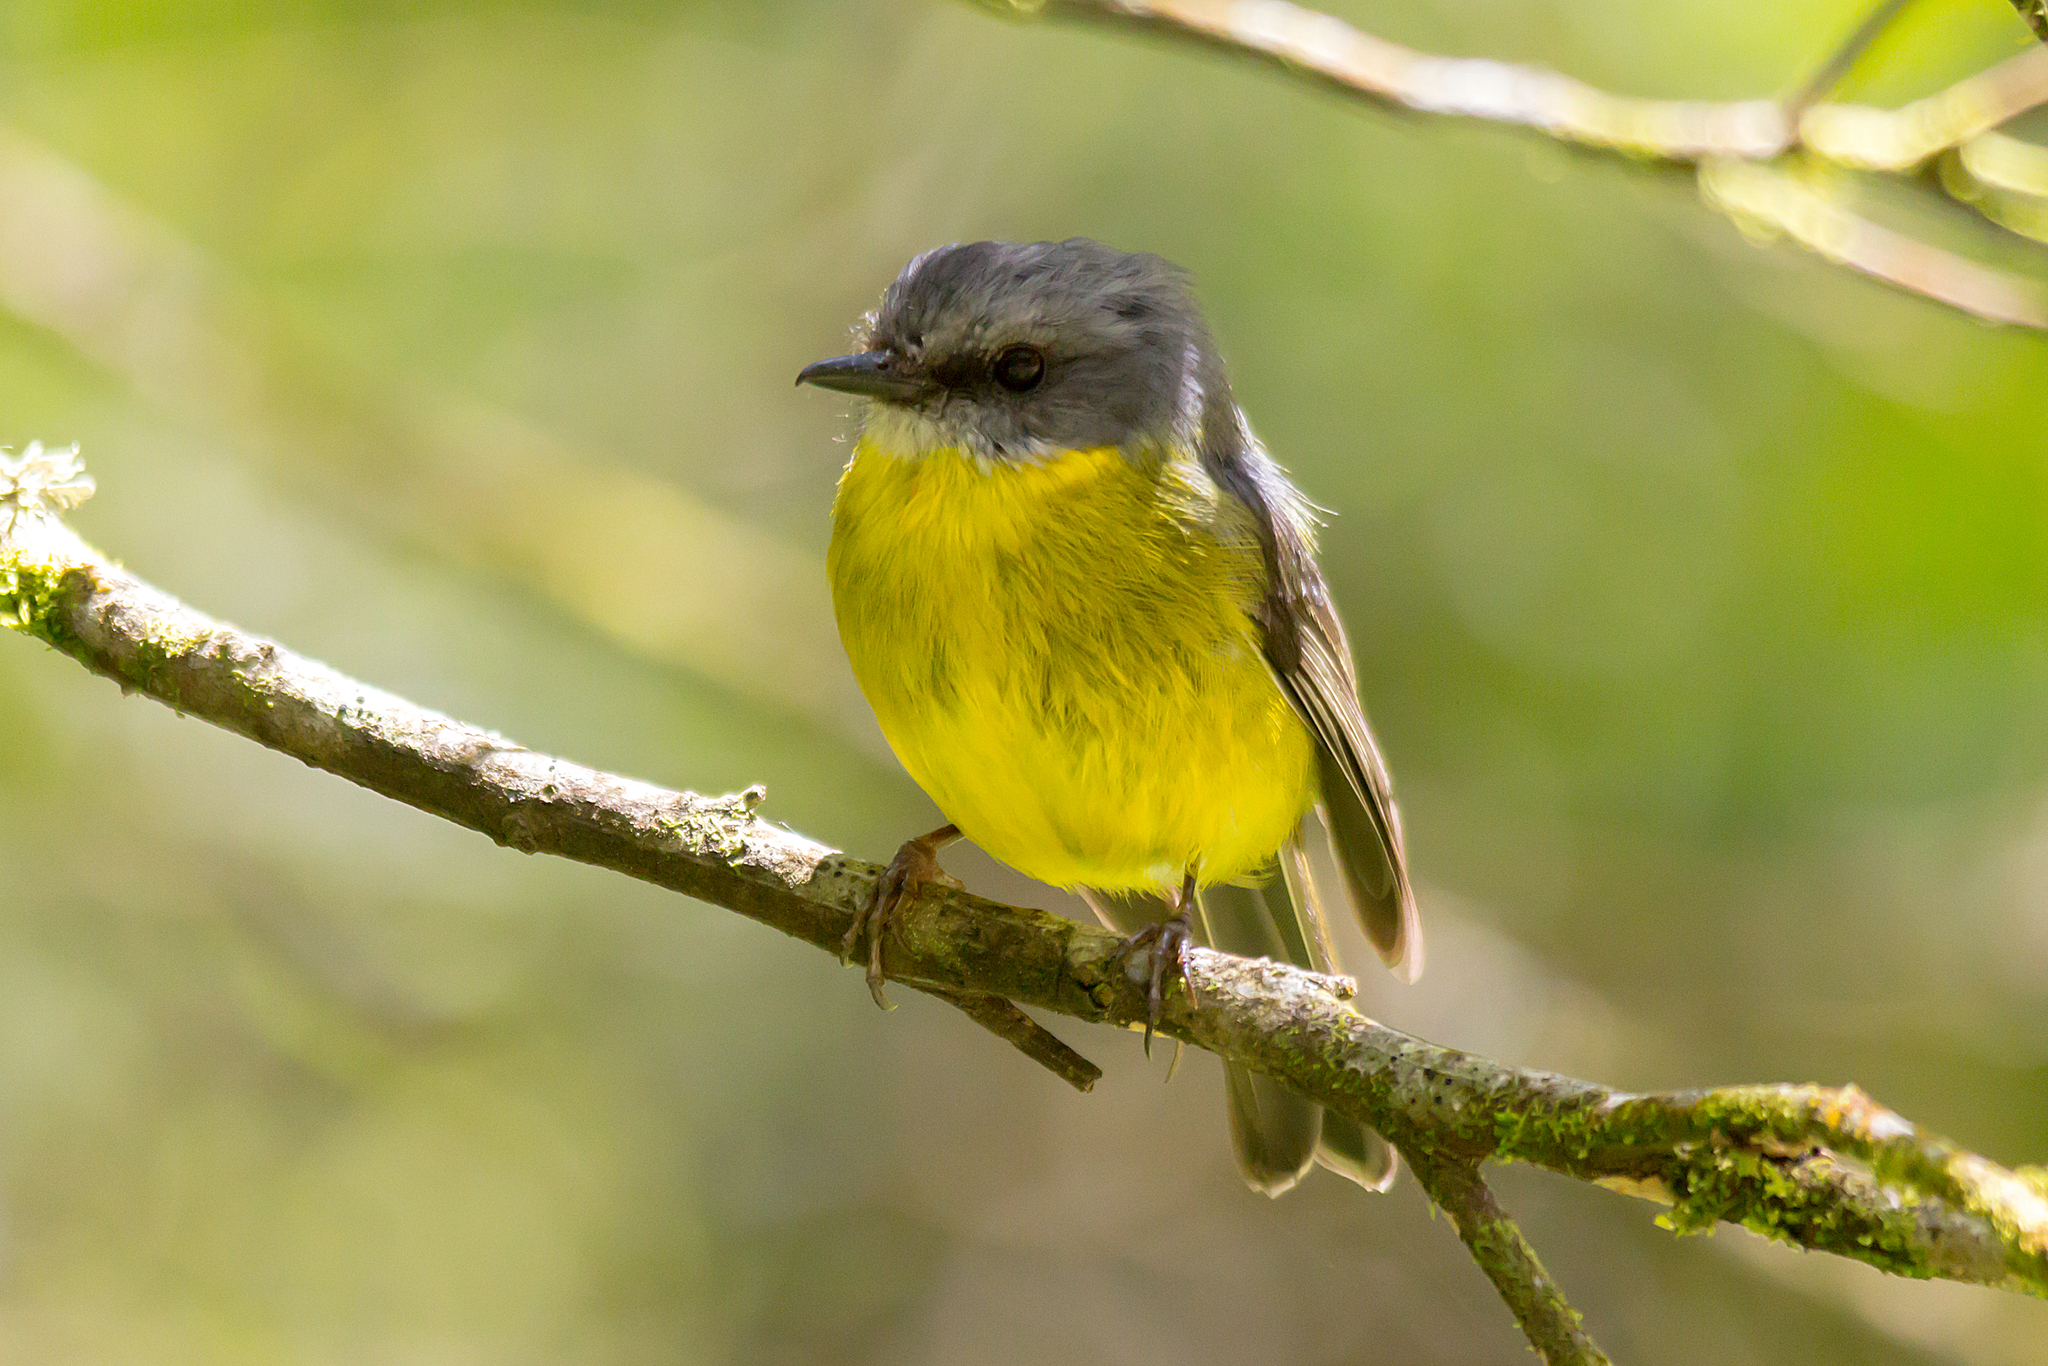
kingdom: Animalia
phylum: Chordata
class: Aves
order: Passeriformes
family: Petroicidae
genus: Eopsaltria
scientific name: Eopsaltria australis
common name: Eastern yellow robin
